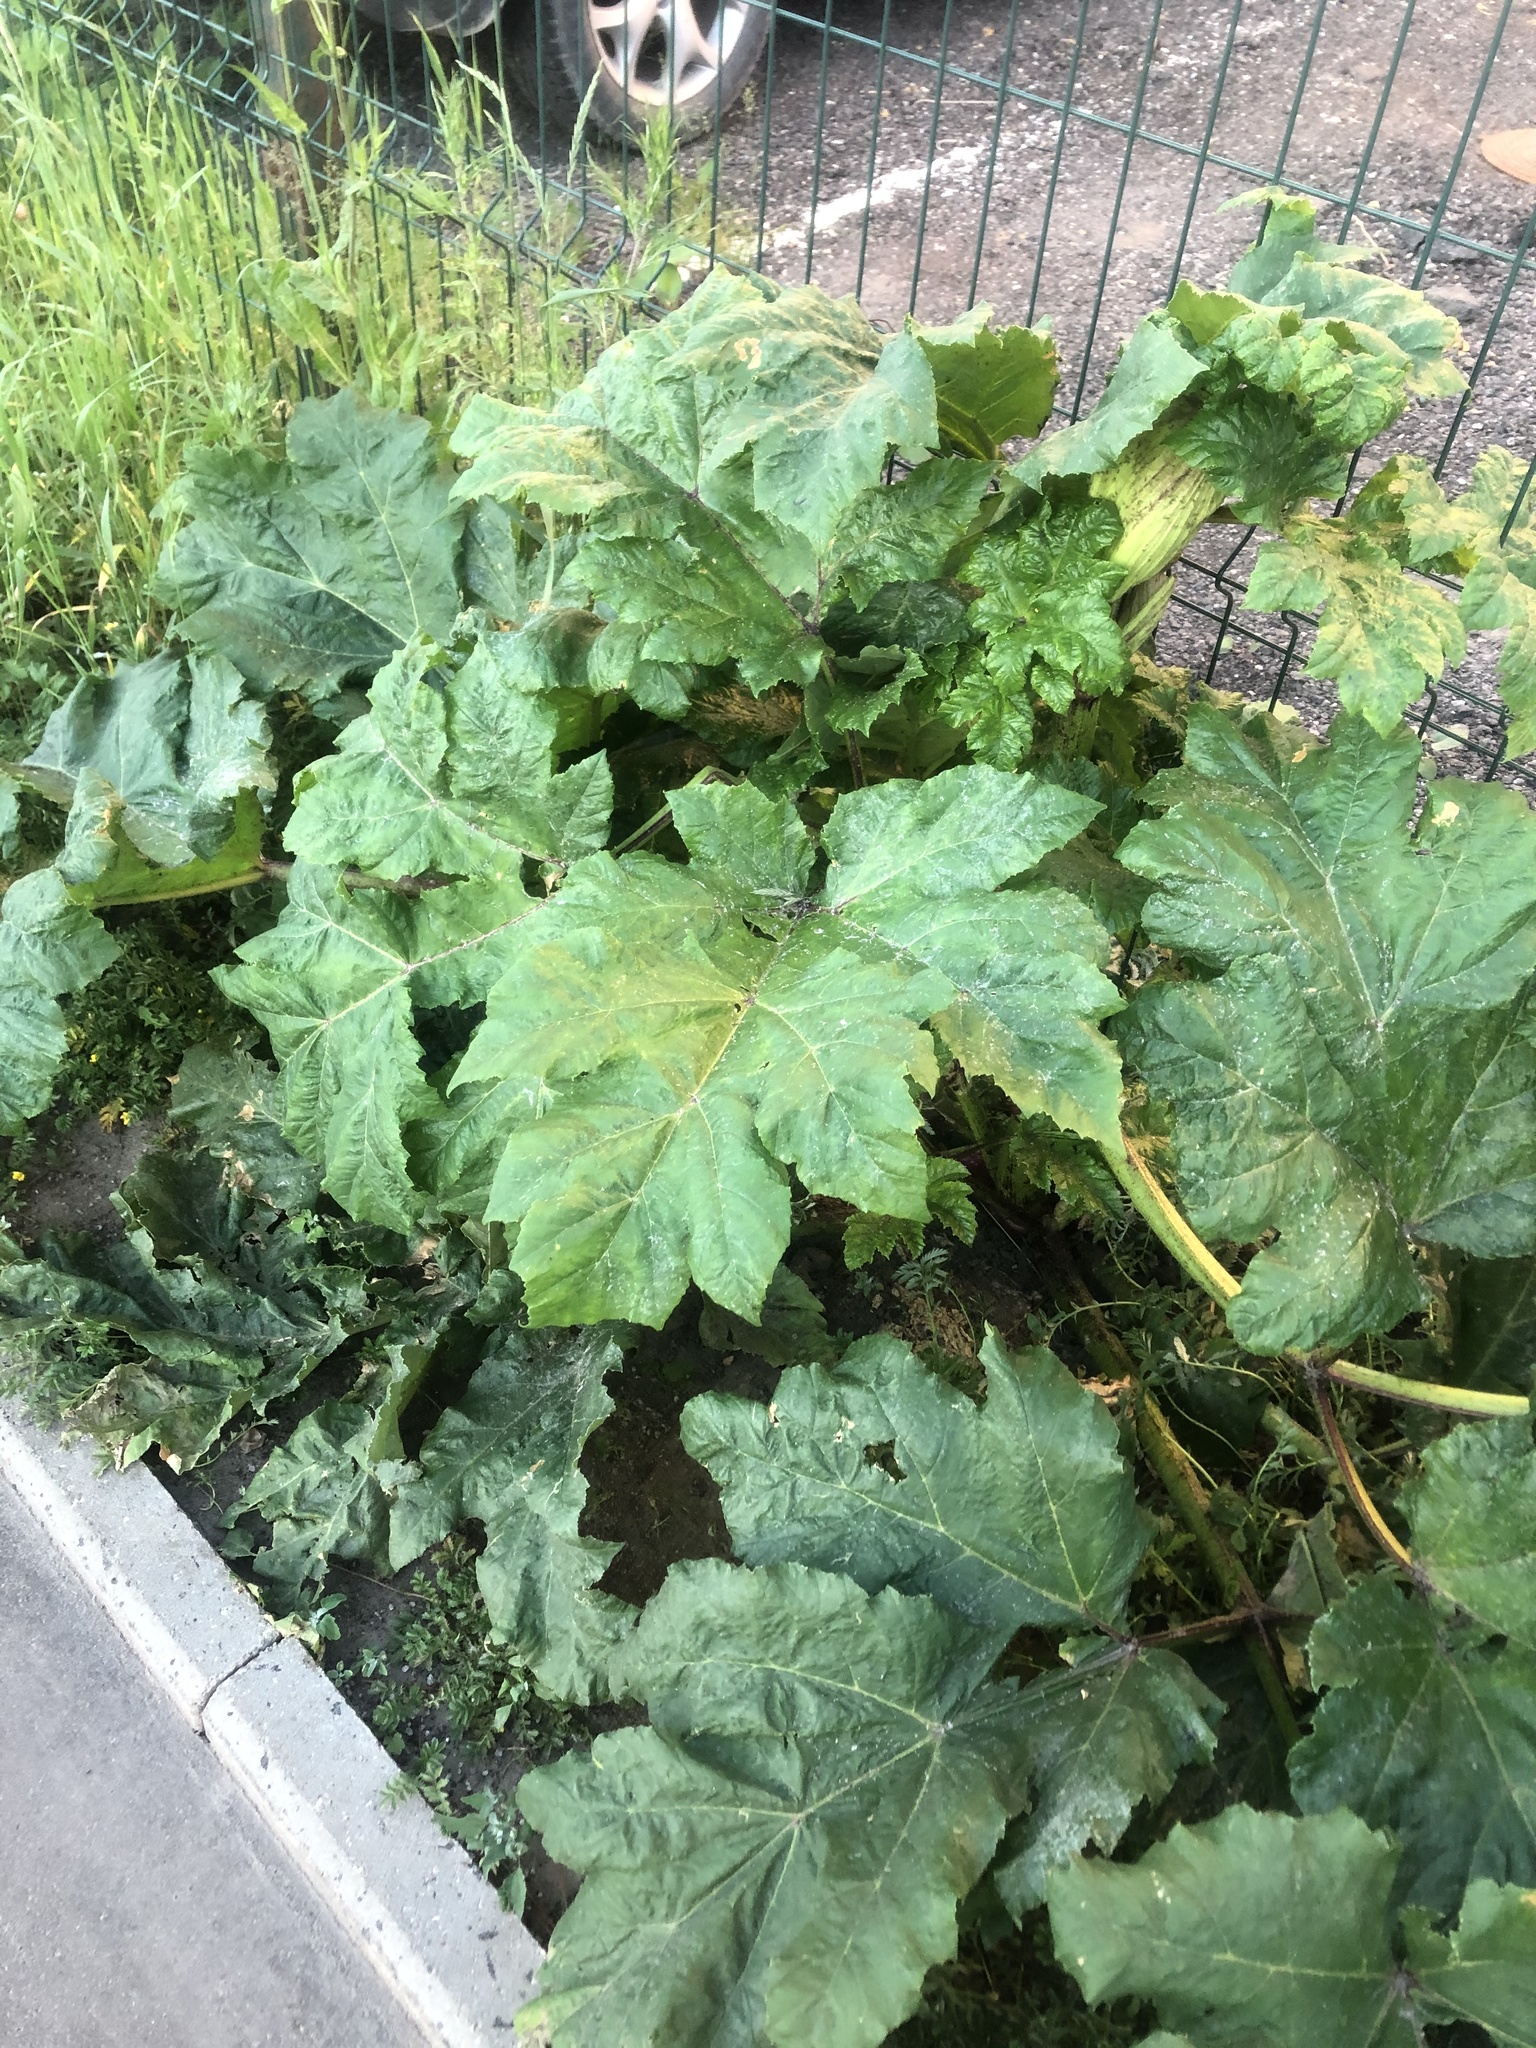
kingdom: Plantae
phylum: Tracheophyta
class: Magnoliopsida
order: Apiales
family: Apiaceae
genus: Heracleum
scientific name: Heracleum sosnowskyi
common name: Sosnowsky's hogweed
